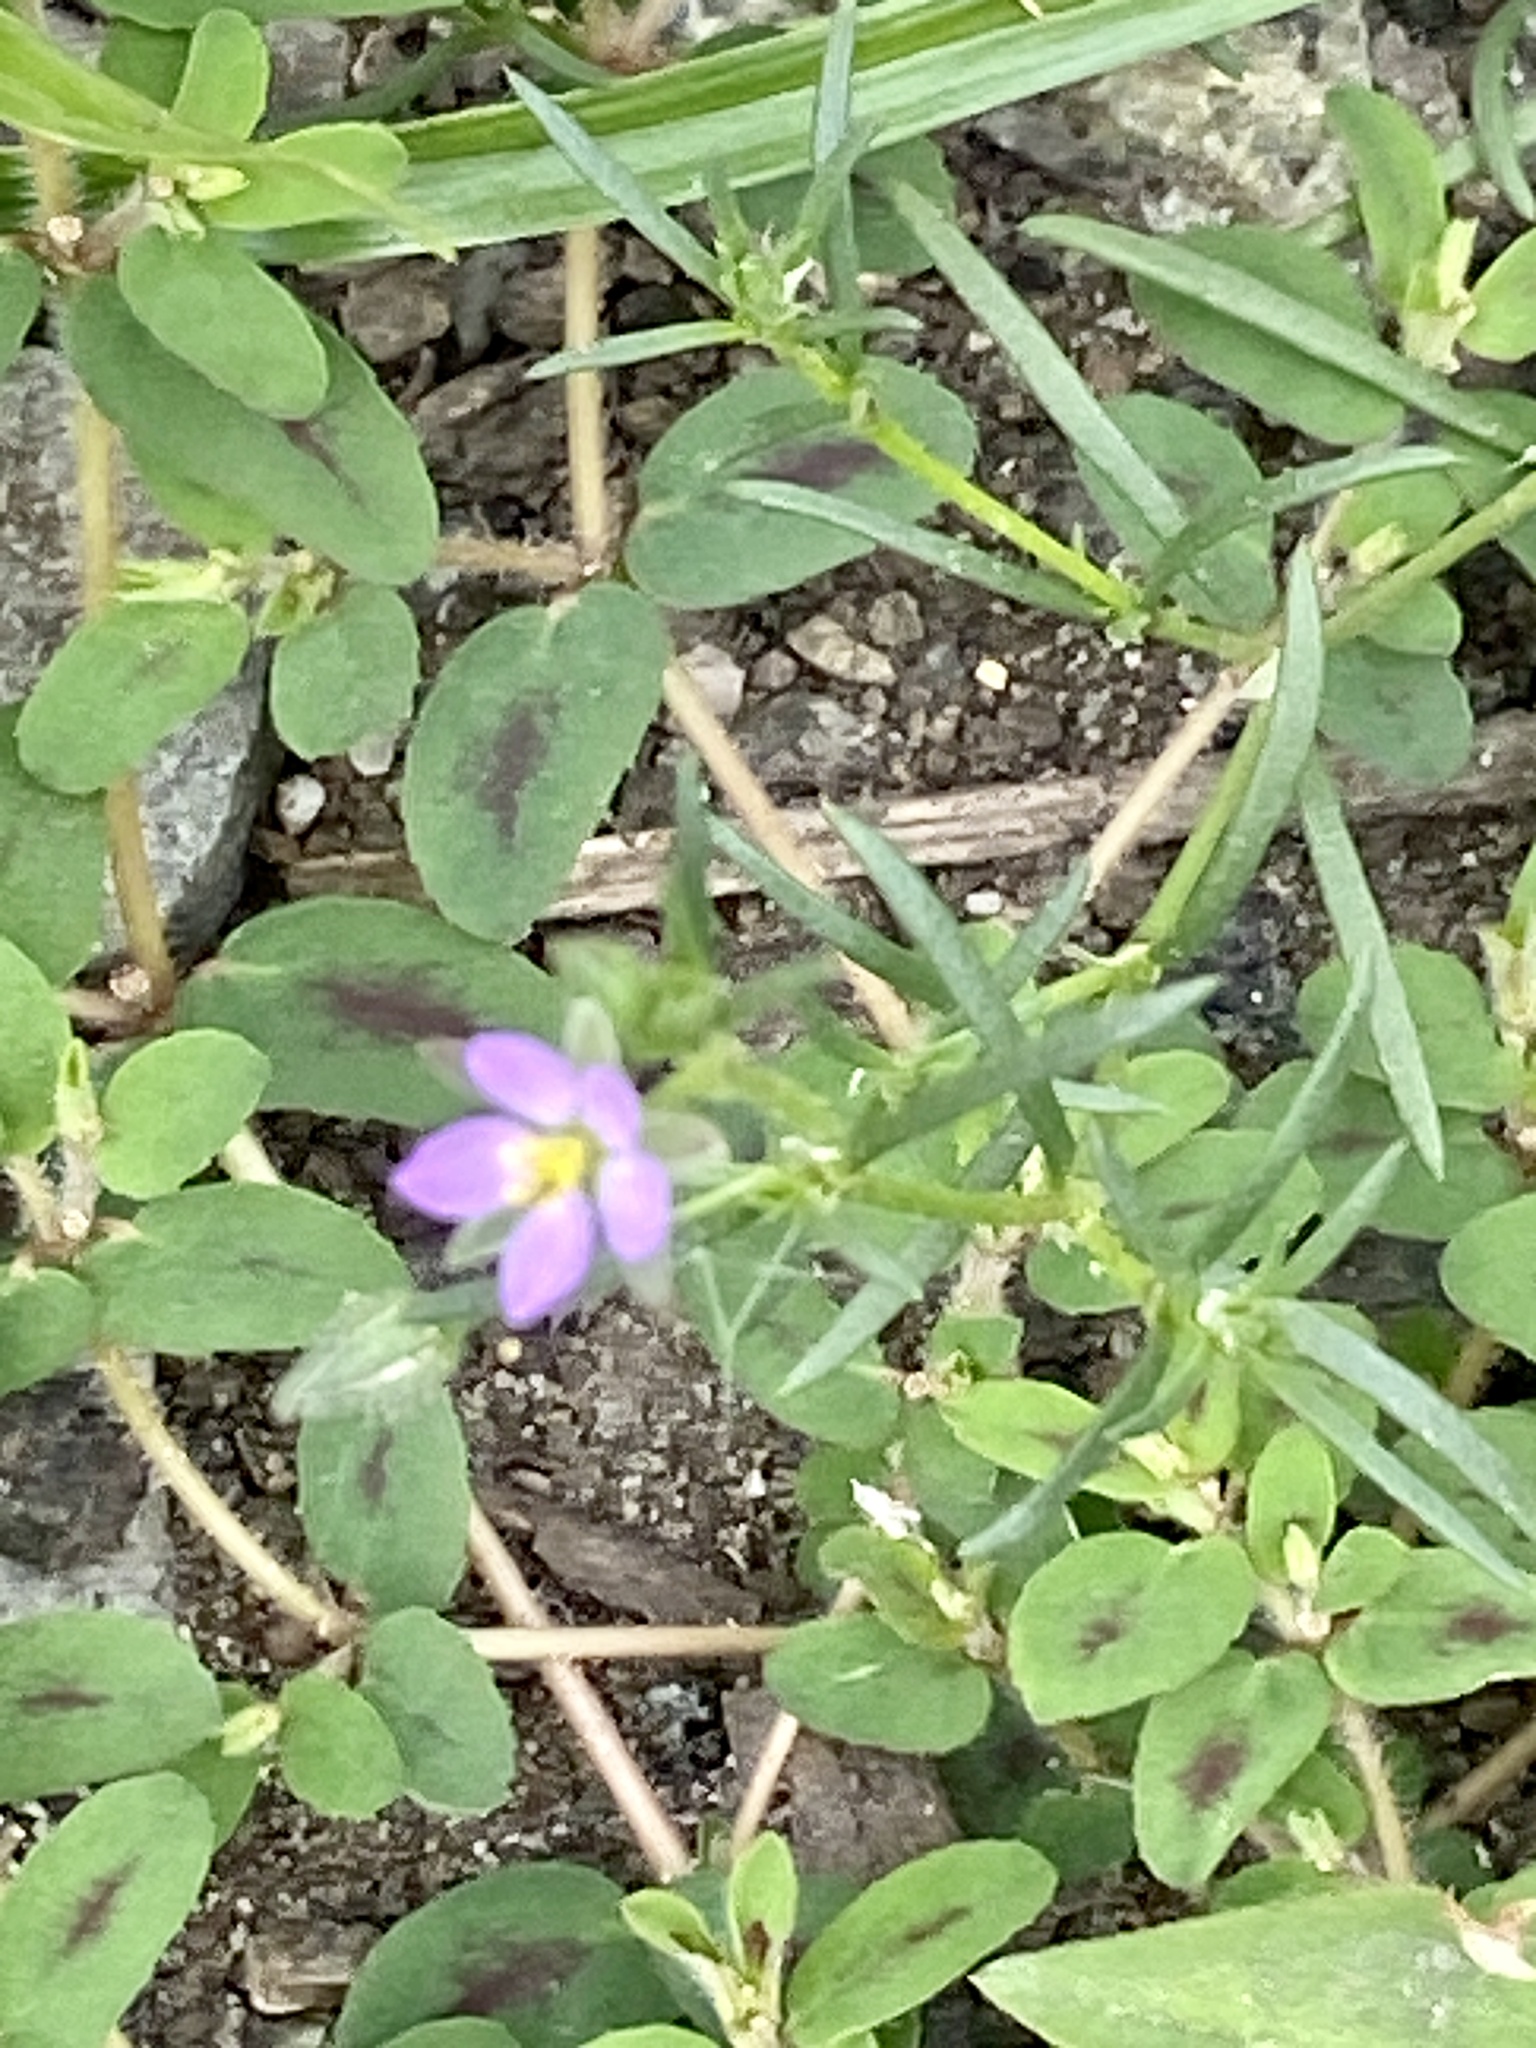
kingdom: Plantae
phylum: Tracheophyta
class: Magnoliopsida
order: Caryophyllales
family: Caryophyllaceae
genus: Spergularia
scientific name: Spergularia rubra
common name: Red sand-spurrey
